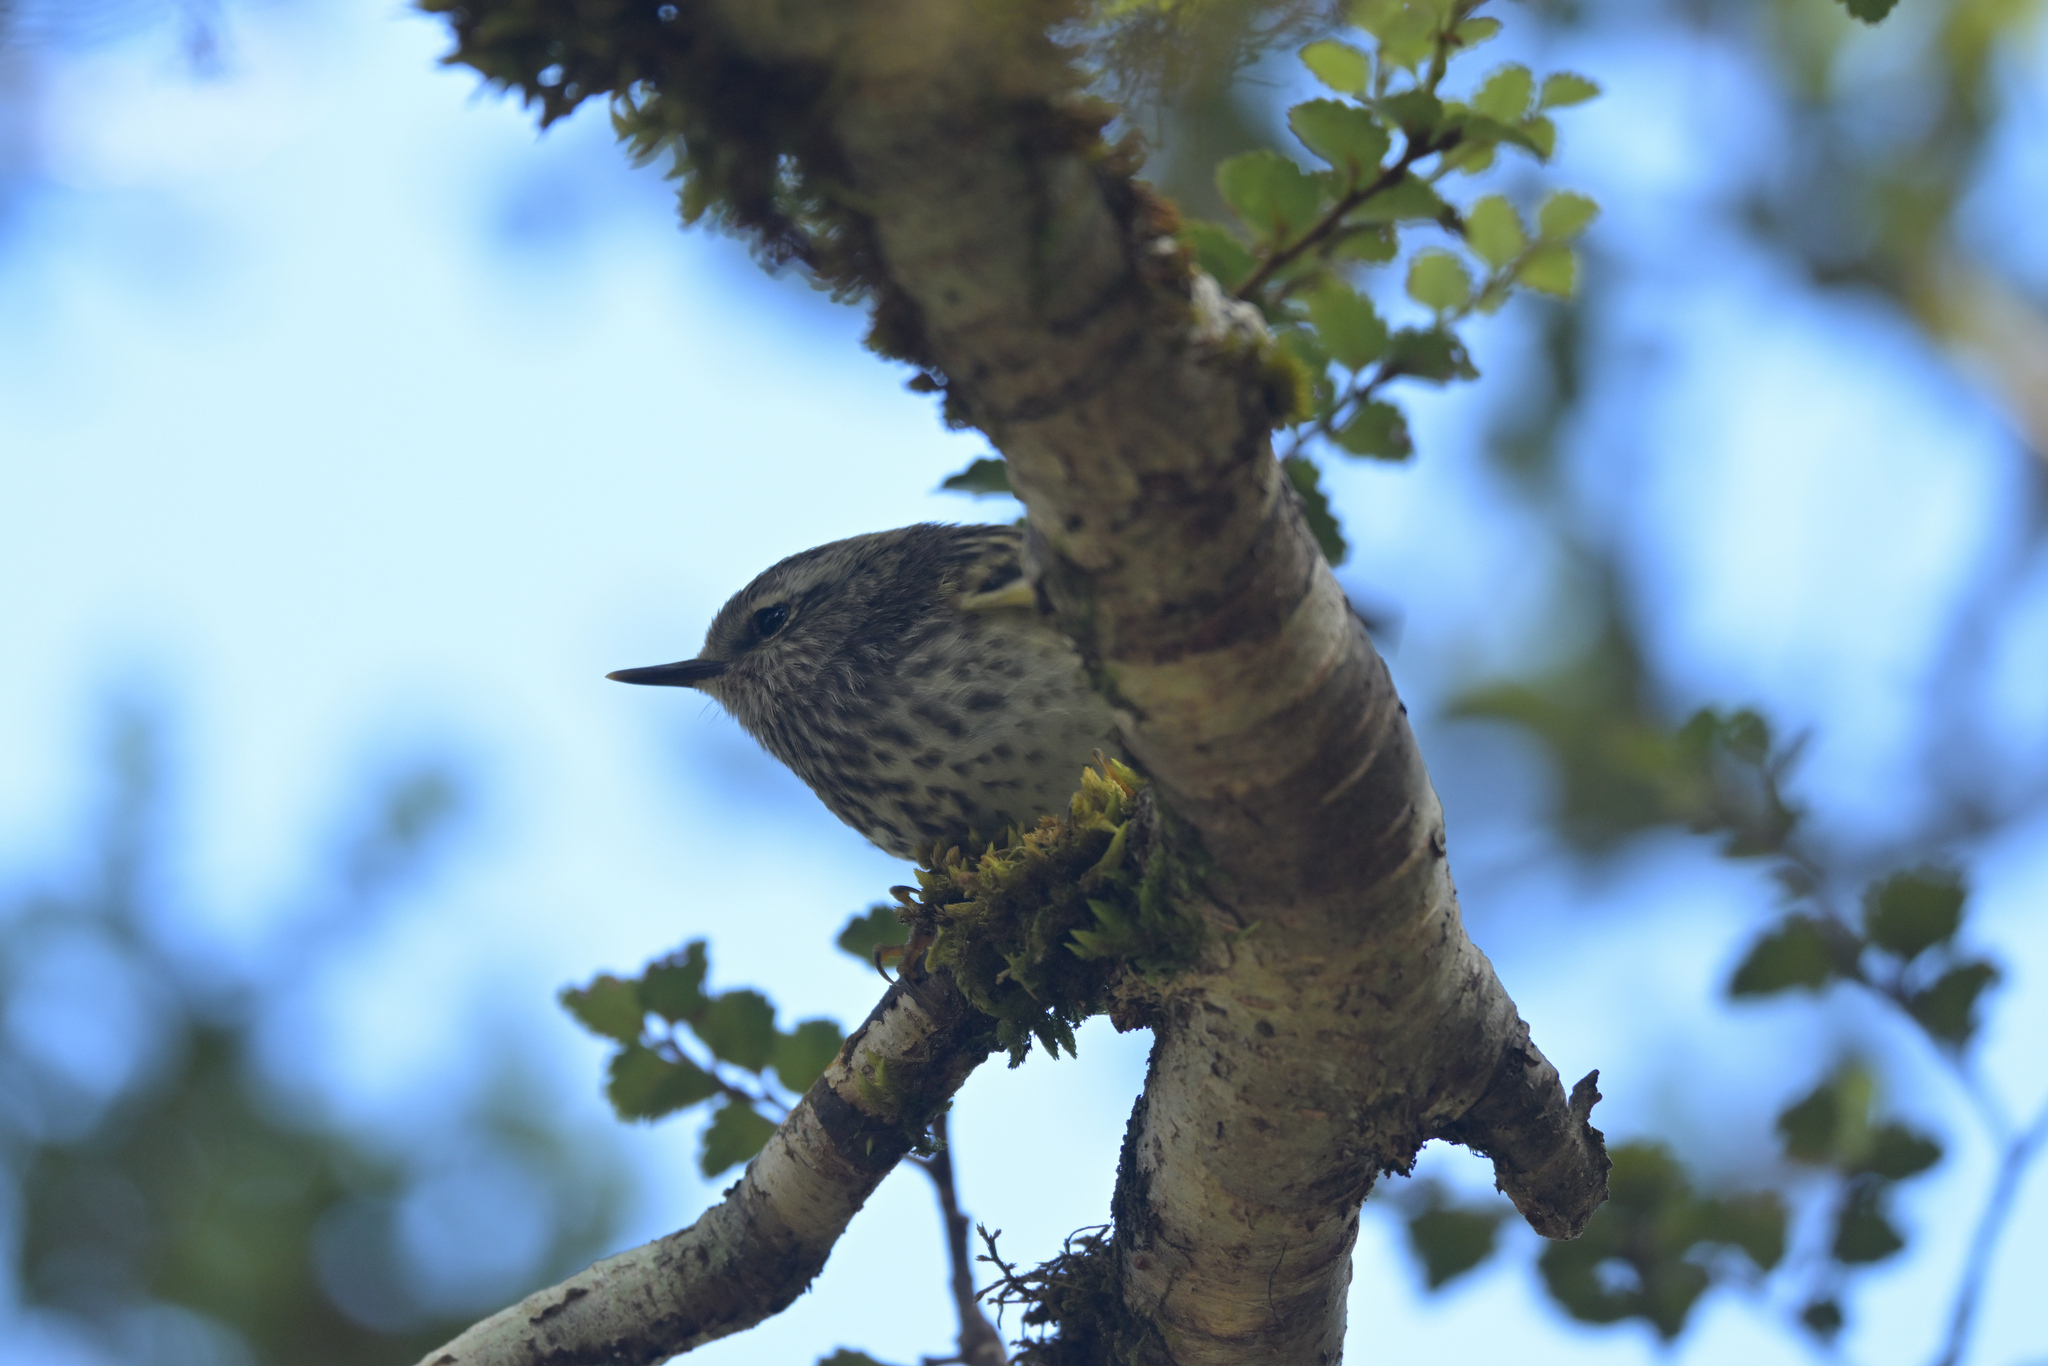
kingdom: Animalia
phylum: Chordata
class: Aves
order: Passeriformes
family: Acanthisittidae
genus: Acanthisitta
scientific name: Acanthisitta chloris
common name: Rifleman
